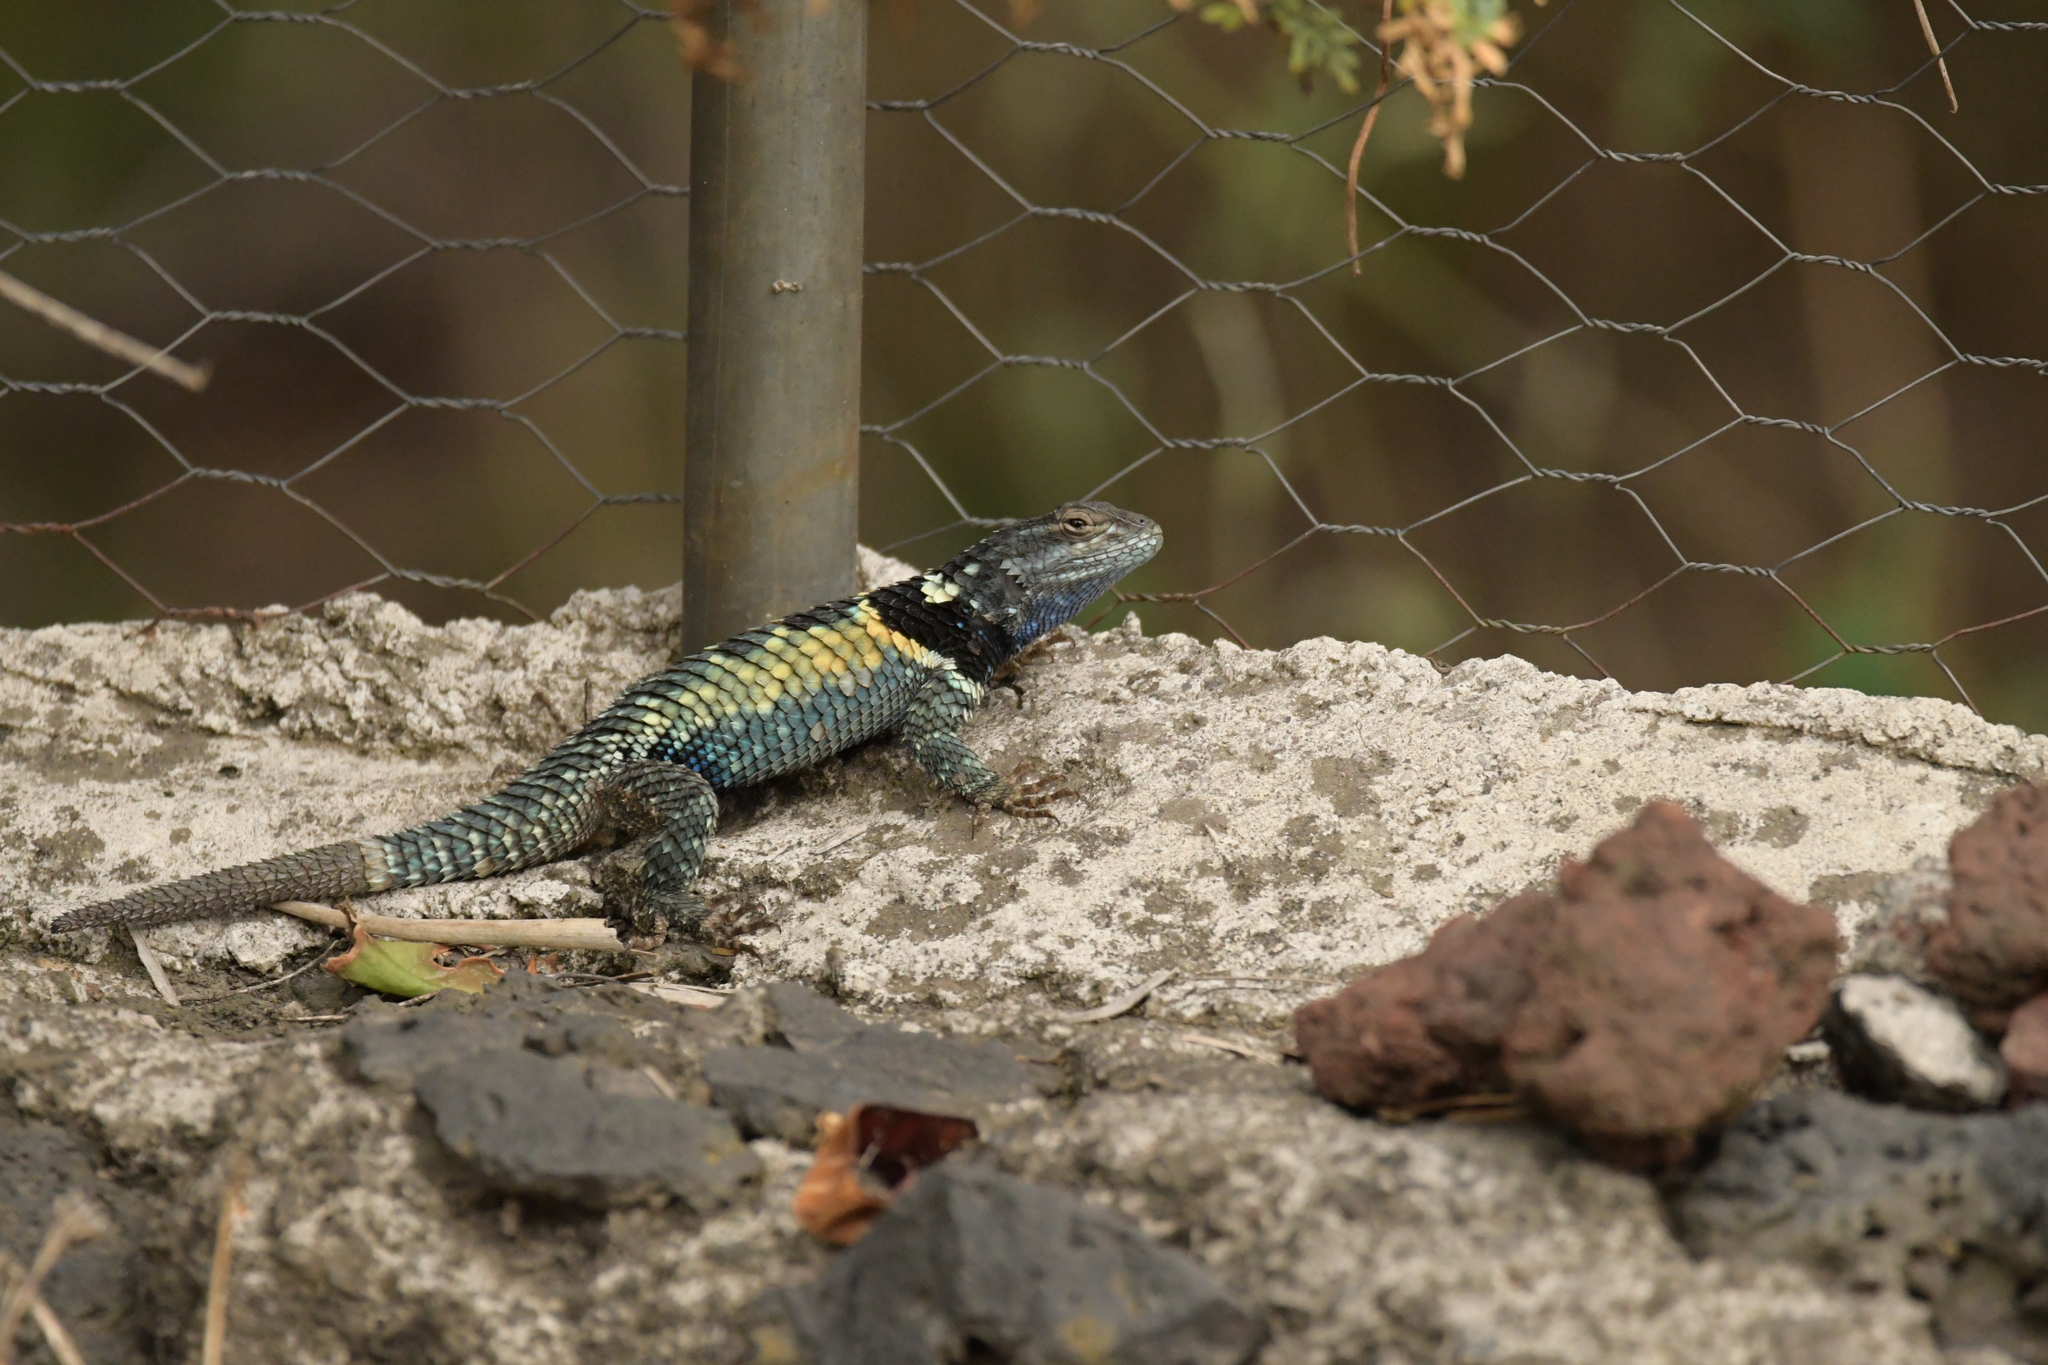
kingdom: Animalia
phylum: Chordata
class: Squamata
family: Phrynosomatidae
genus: Sceloporus
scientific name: Sceloporus torquatus
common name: Central plateau torquate lizard [melanogaster]
